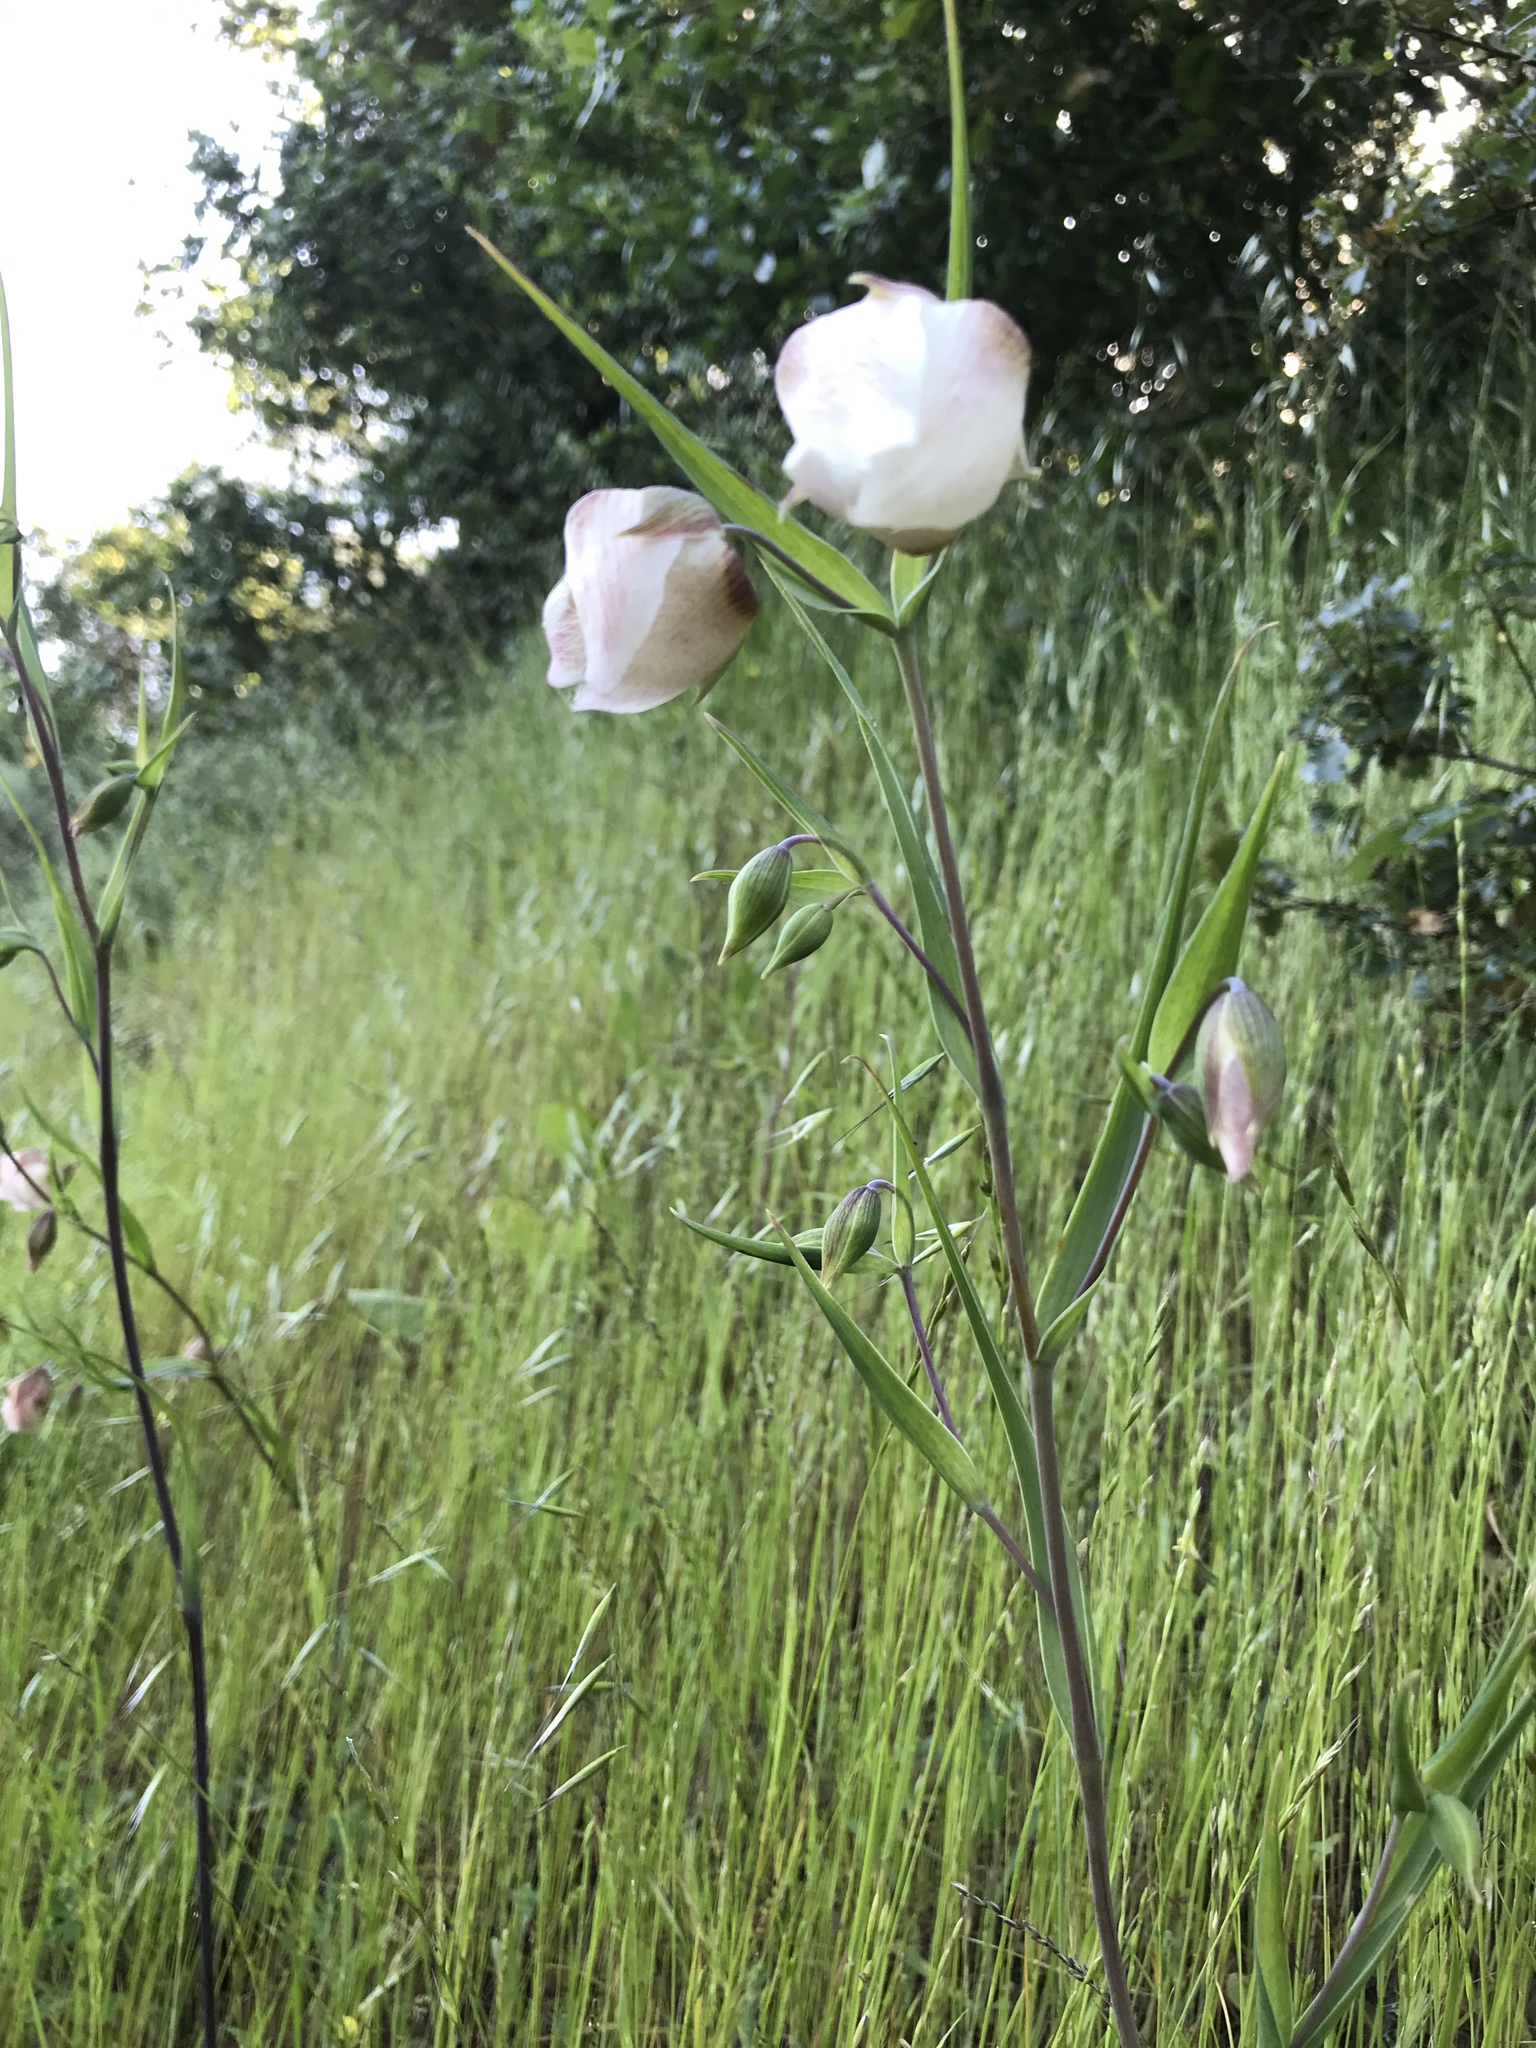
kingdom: Plantae
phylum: Tracheophyta
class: Liliopsida
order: Liliales
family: Liliaceae
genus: Calochortus
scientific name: Calochortus albus
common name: Fairy-lantern
